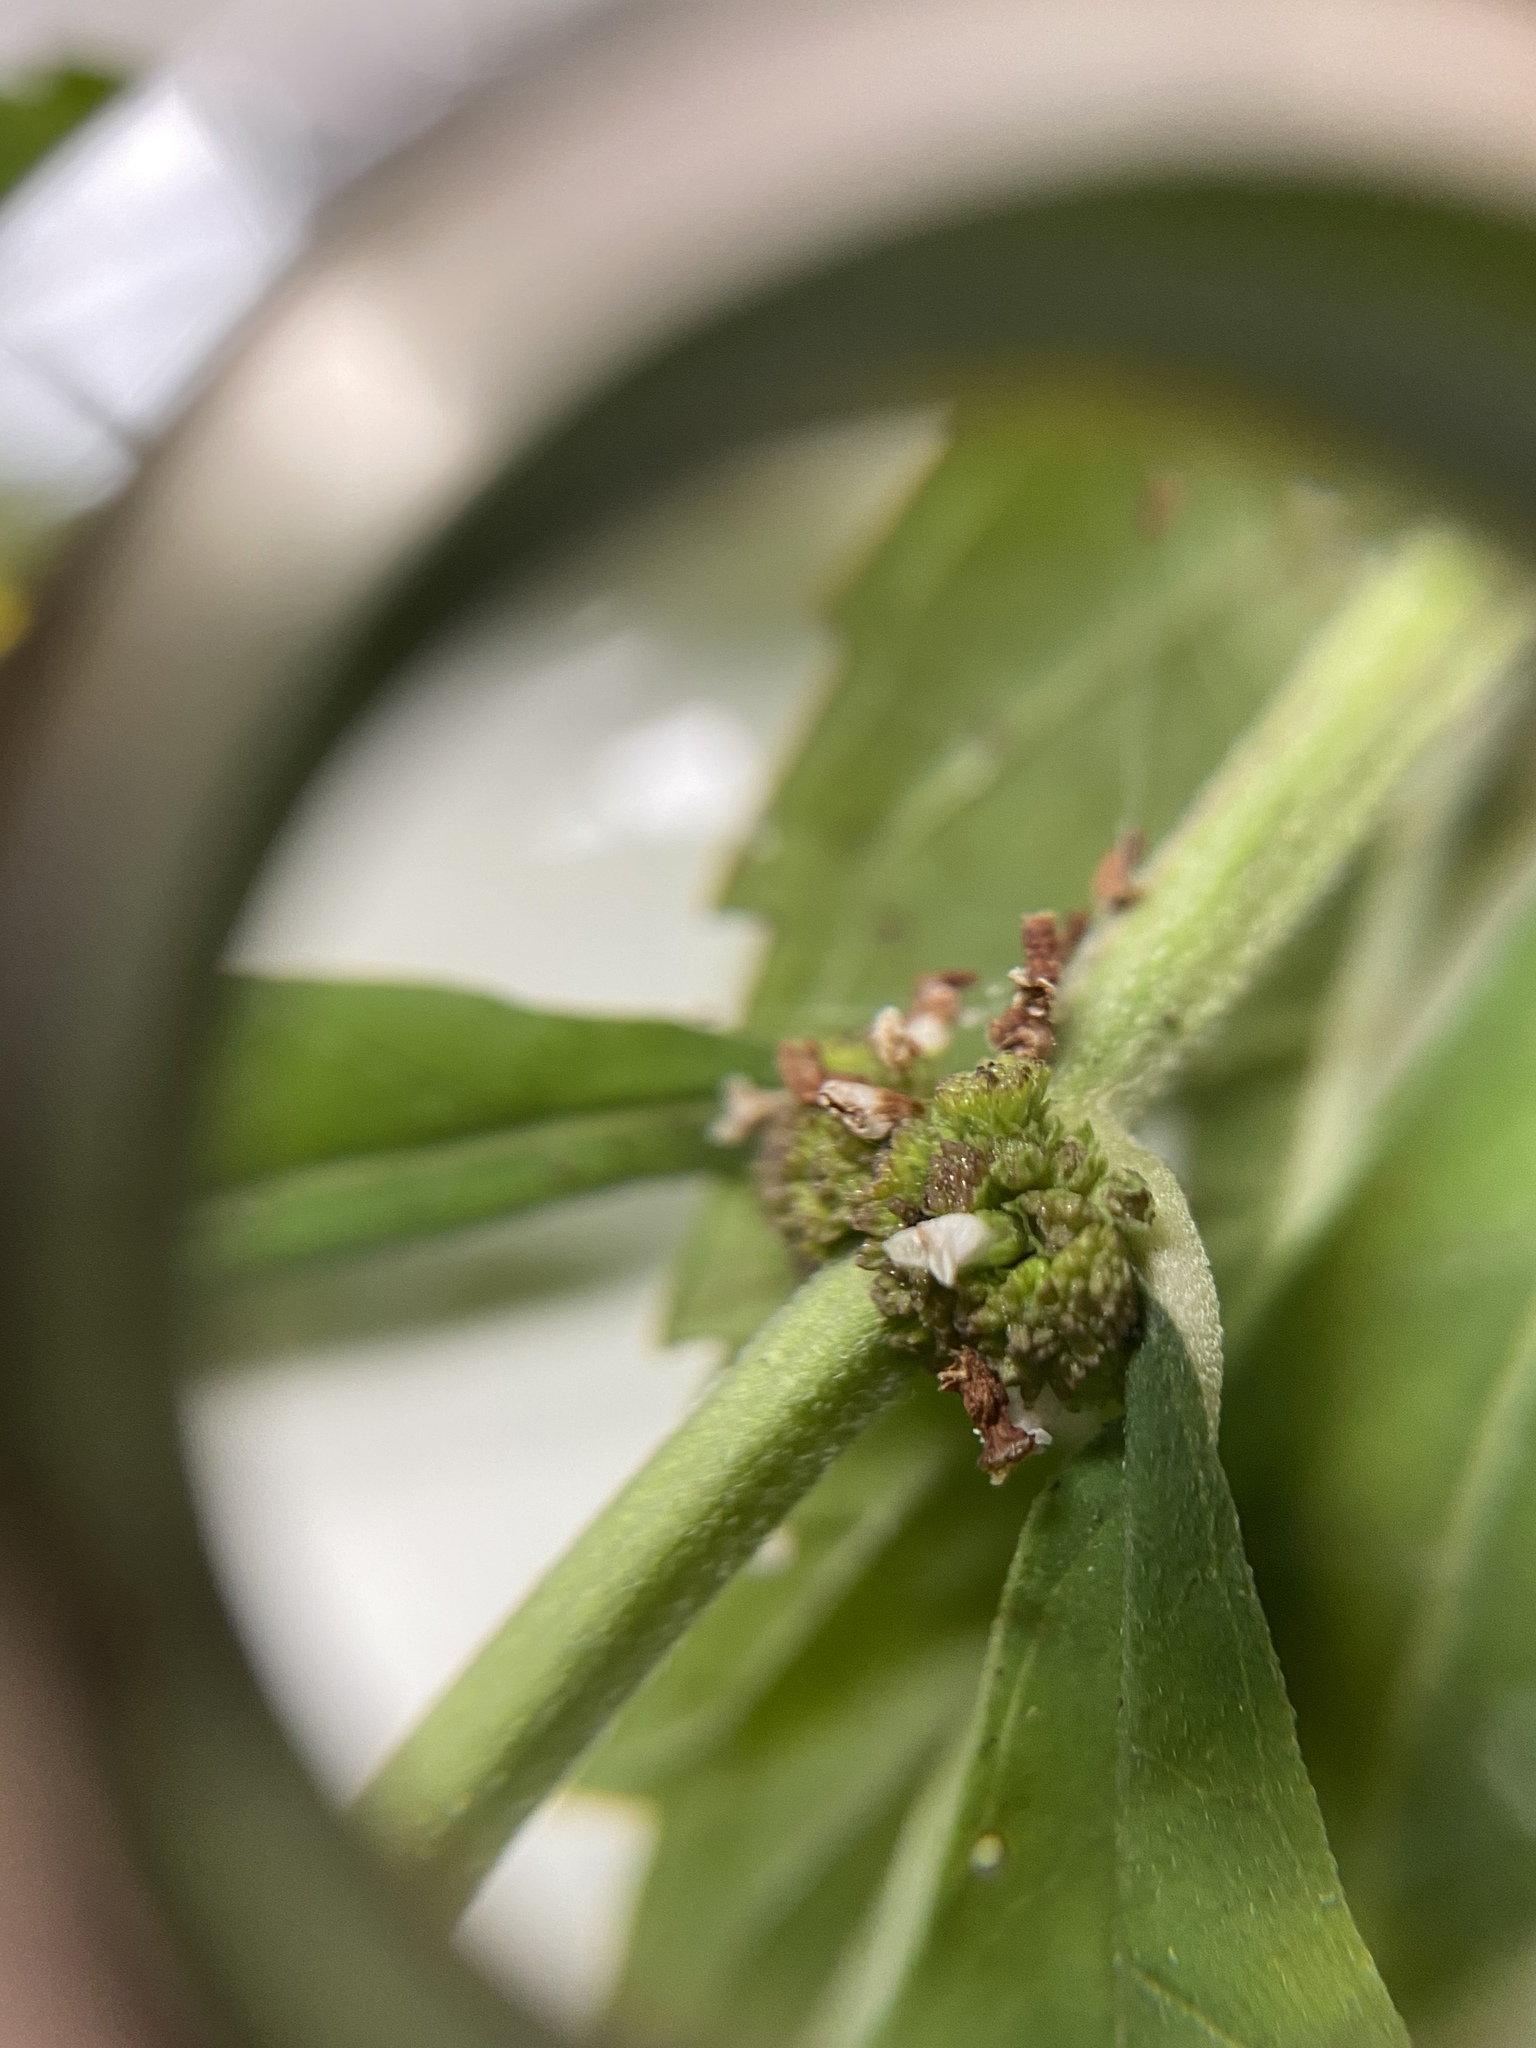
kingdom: Plantae
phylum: Tracheophyta
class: Magnoliopsida
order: Lamiales
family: Lamiaceae
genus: Lycopus
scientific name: Lycopus americanus
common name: American bugleweed
